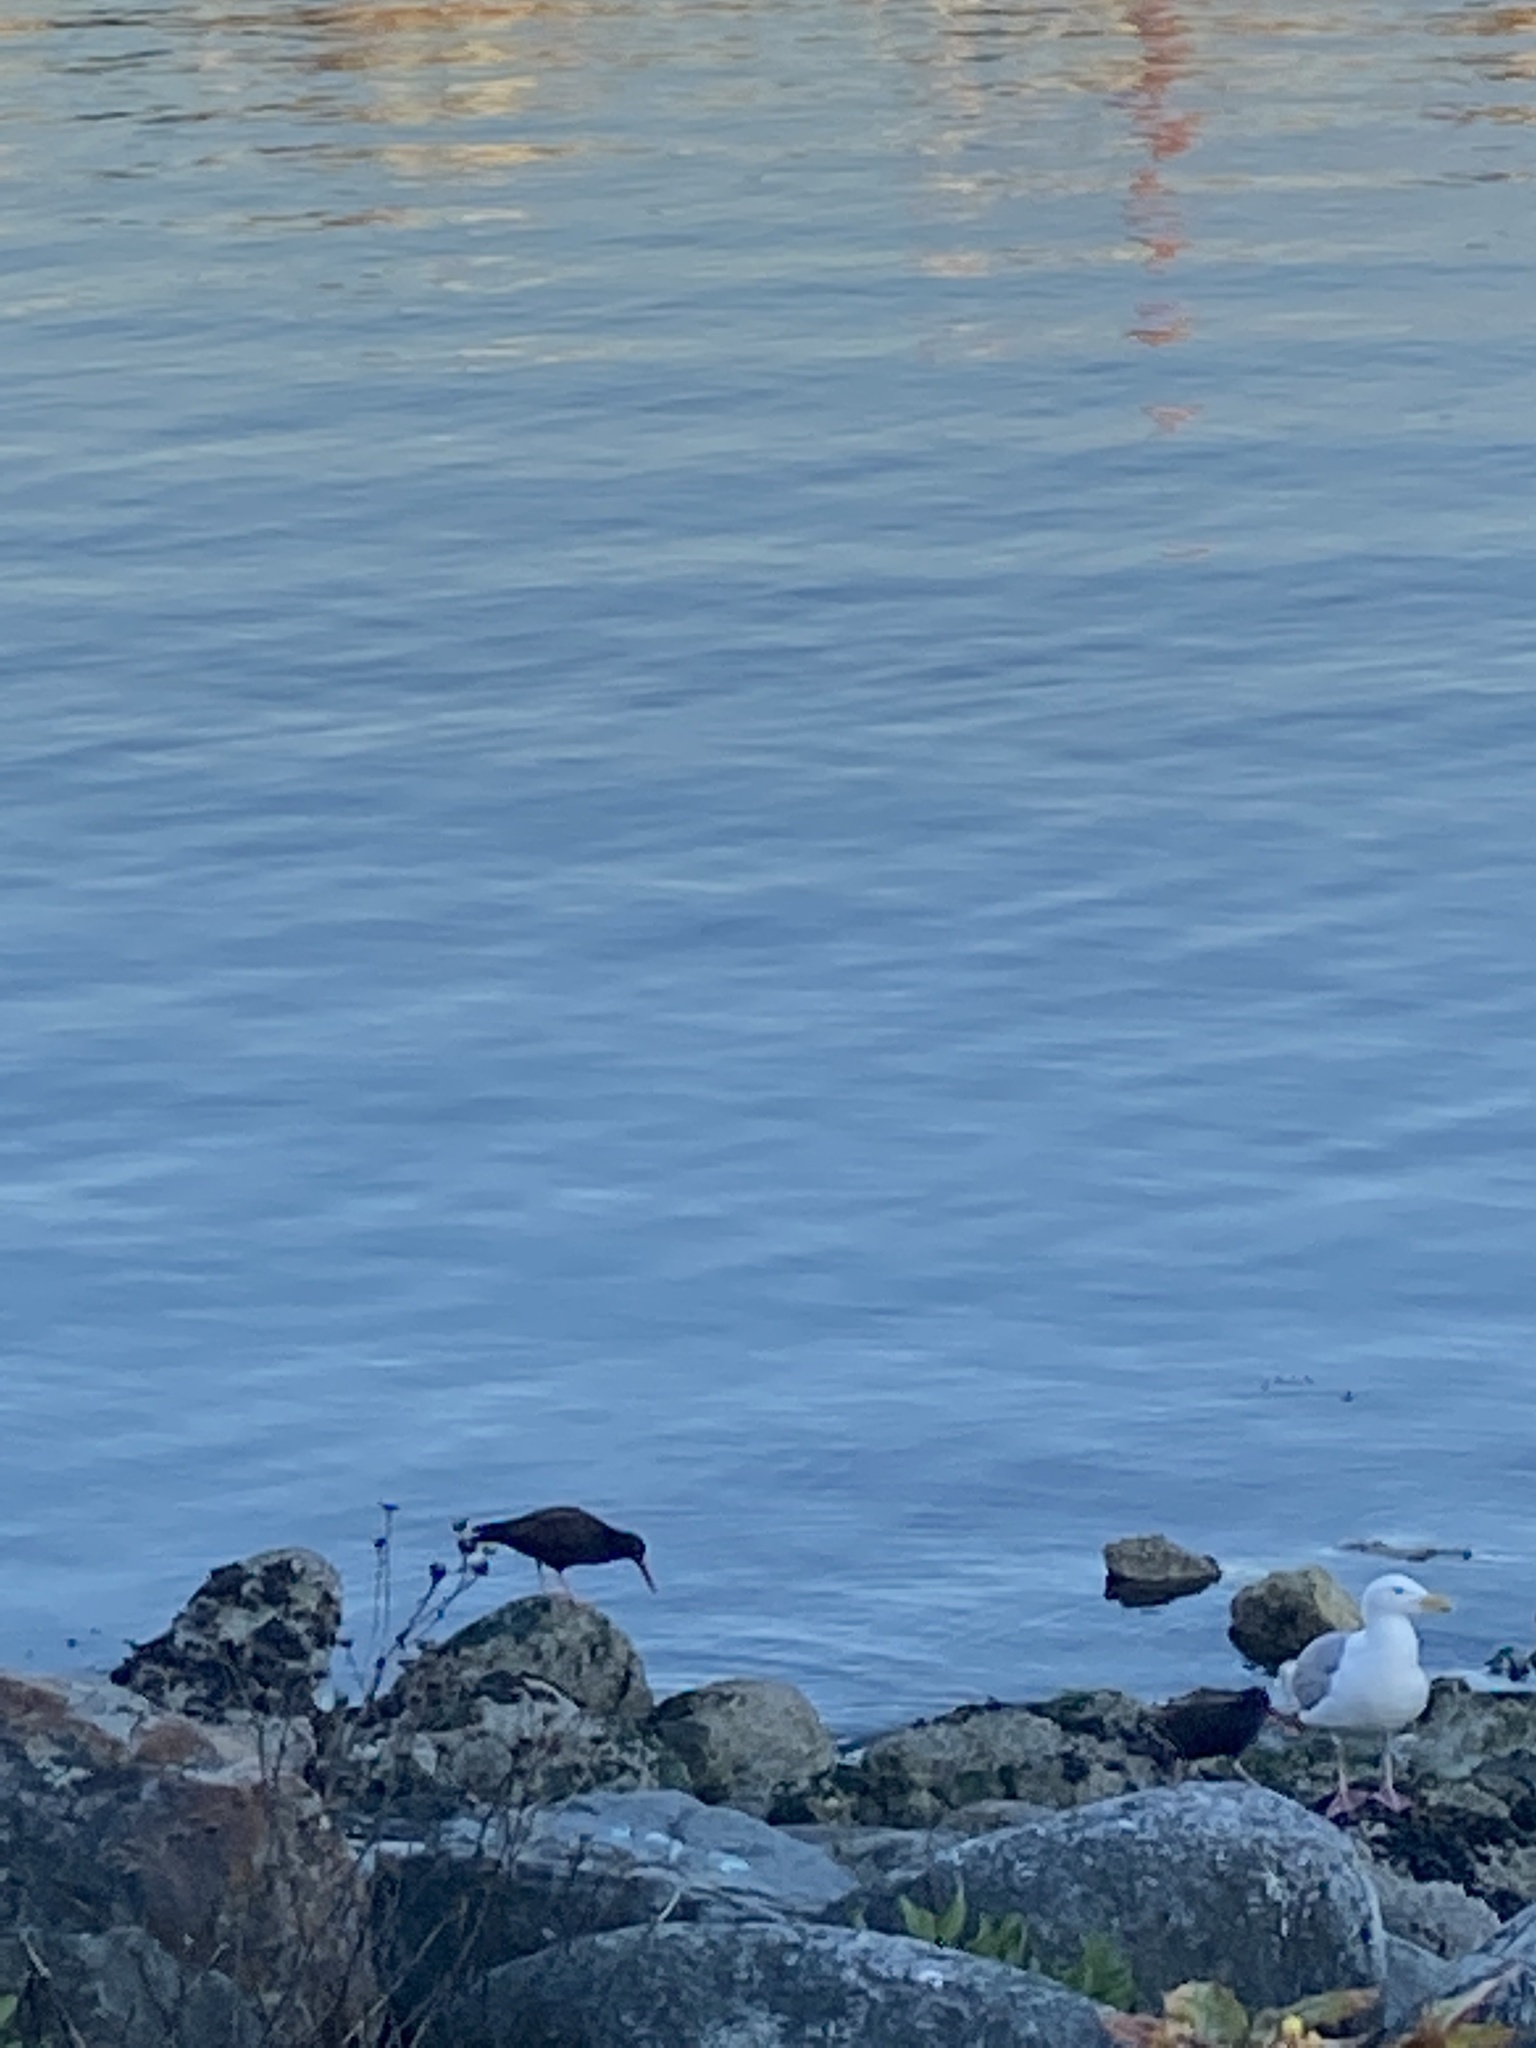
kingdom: Animalia
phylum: Chordata
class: Aves
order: Charadriiformes
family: Haematopodidae
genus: Haematopus
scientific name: Haematopus bachmani
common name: Black oystercatcher
